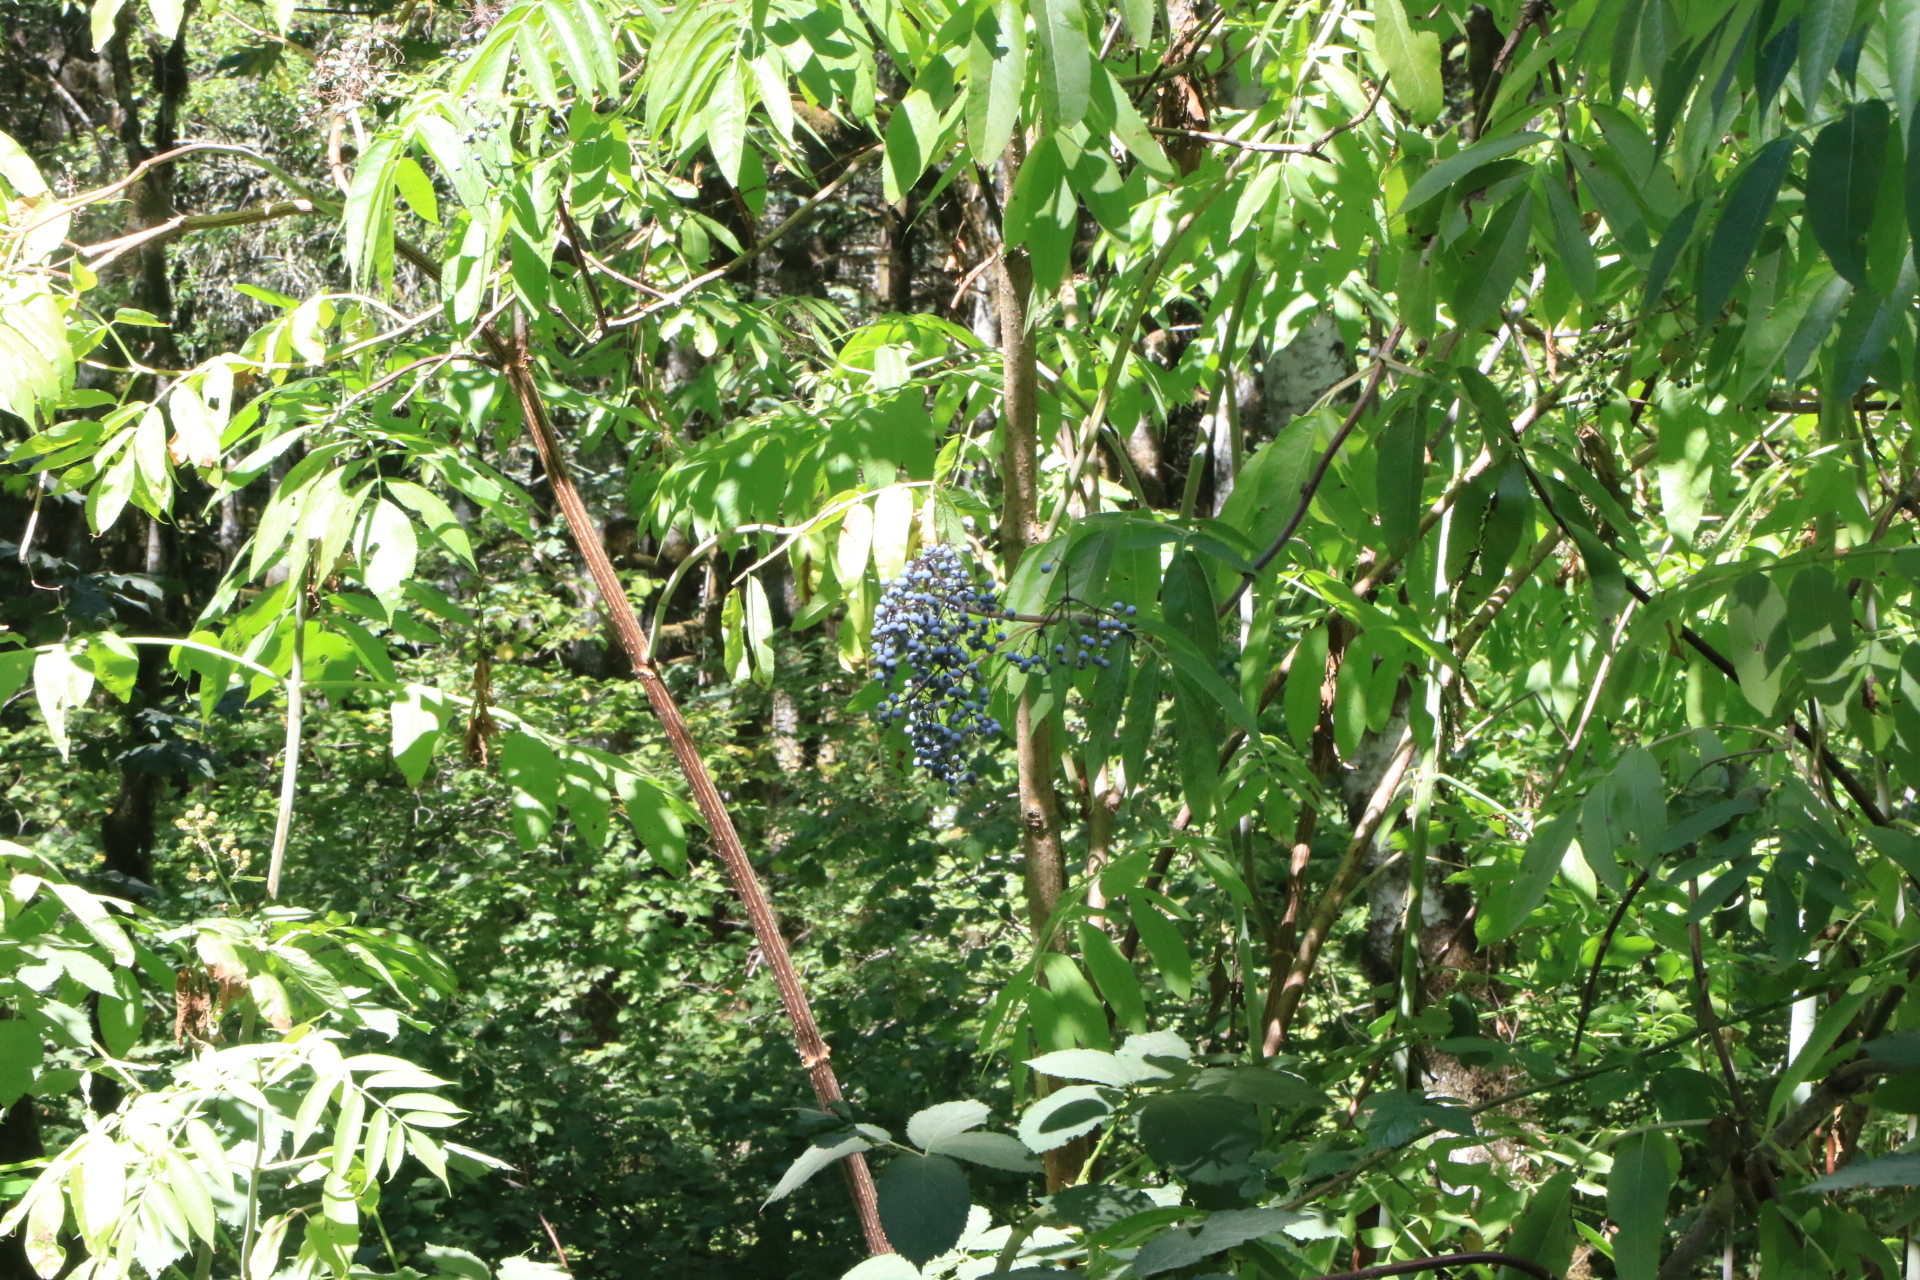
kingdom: Plantae
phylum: Tracheophyta
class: Magnoliopsida
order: Dipsacales
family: Viburnaceae
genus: Sambucus
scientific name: Sambucus cerulea
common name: Blue elder
